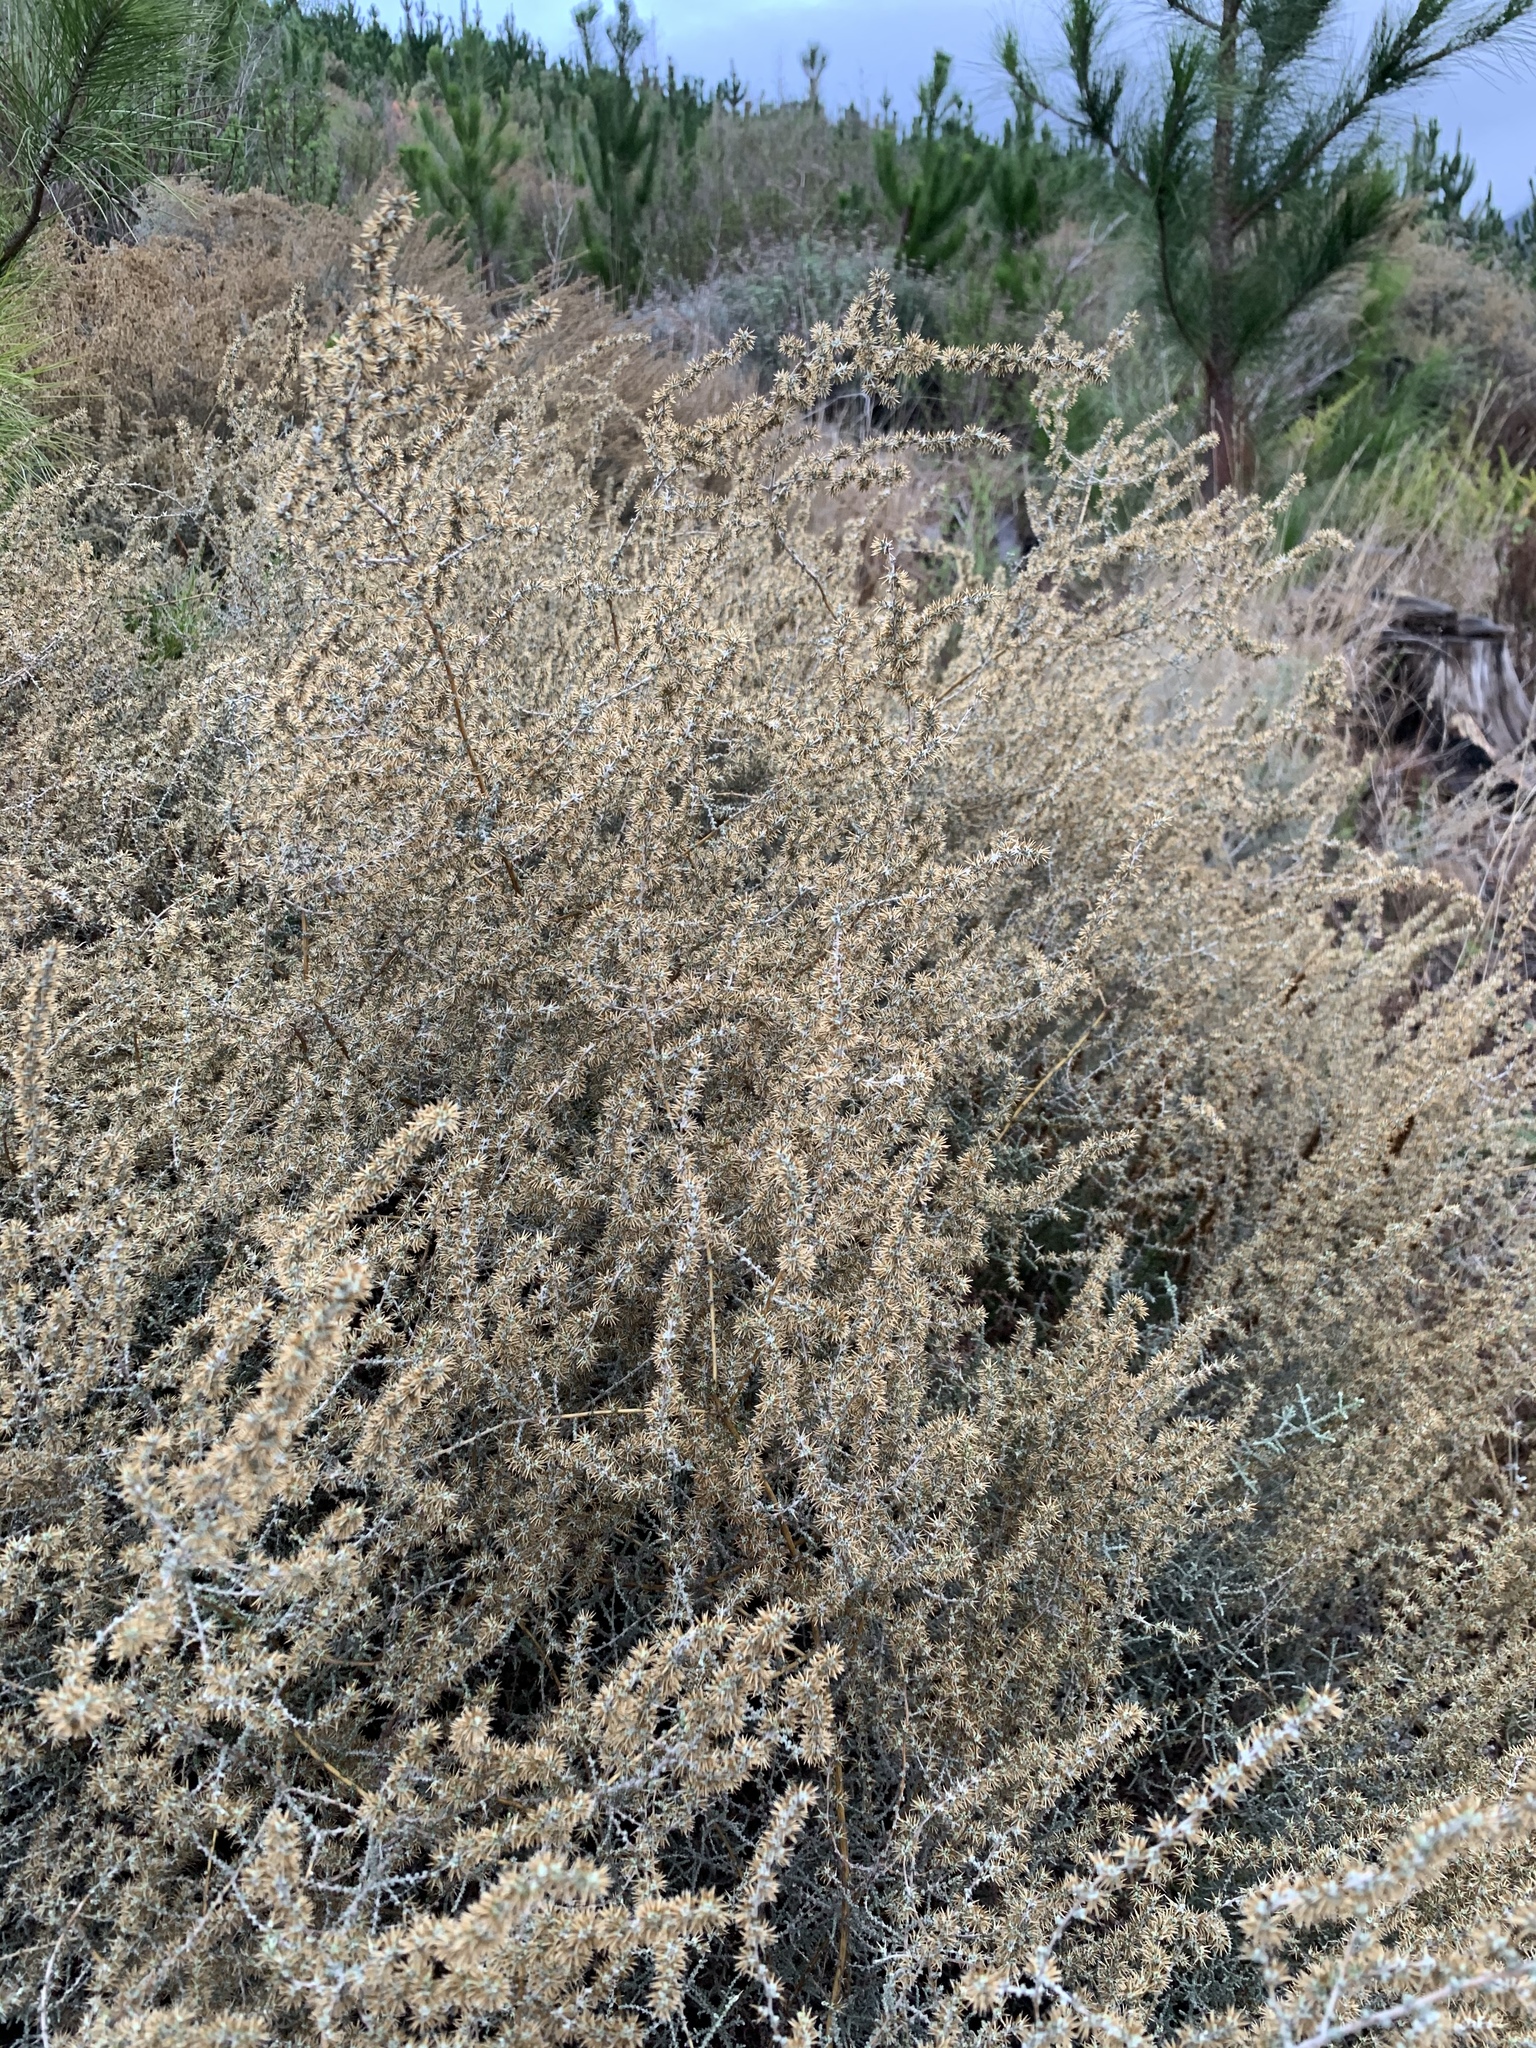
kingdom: Plantae
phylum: Tracheophyta
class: Magnoliopsida
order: Asterales
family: Asteraceae
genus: Seriphium
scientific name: Seriphium plumosum
